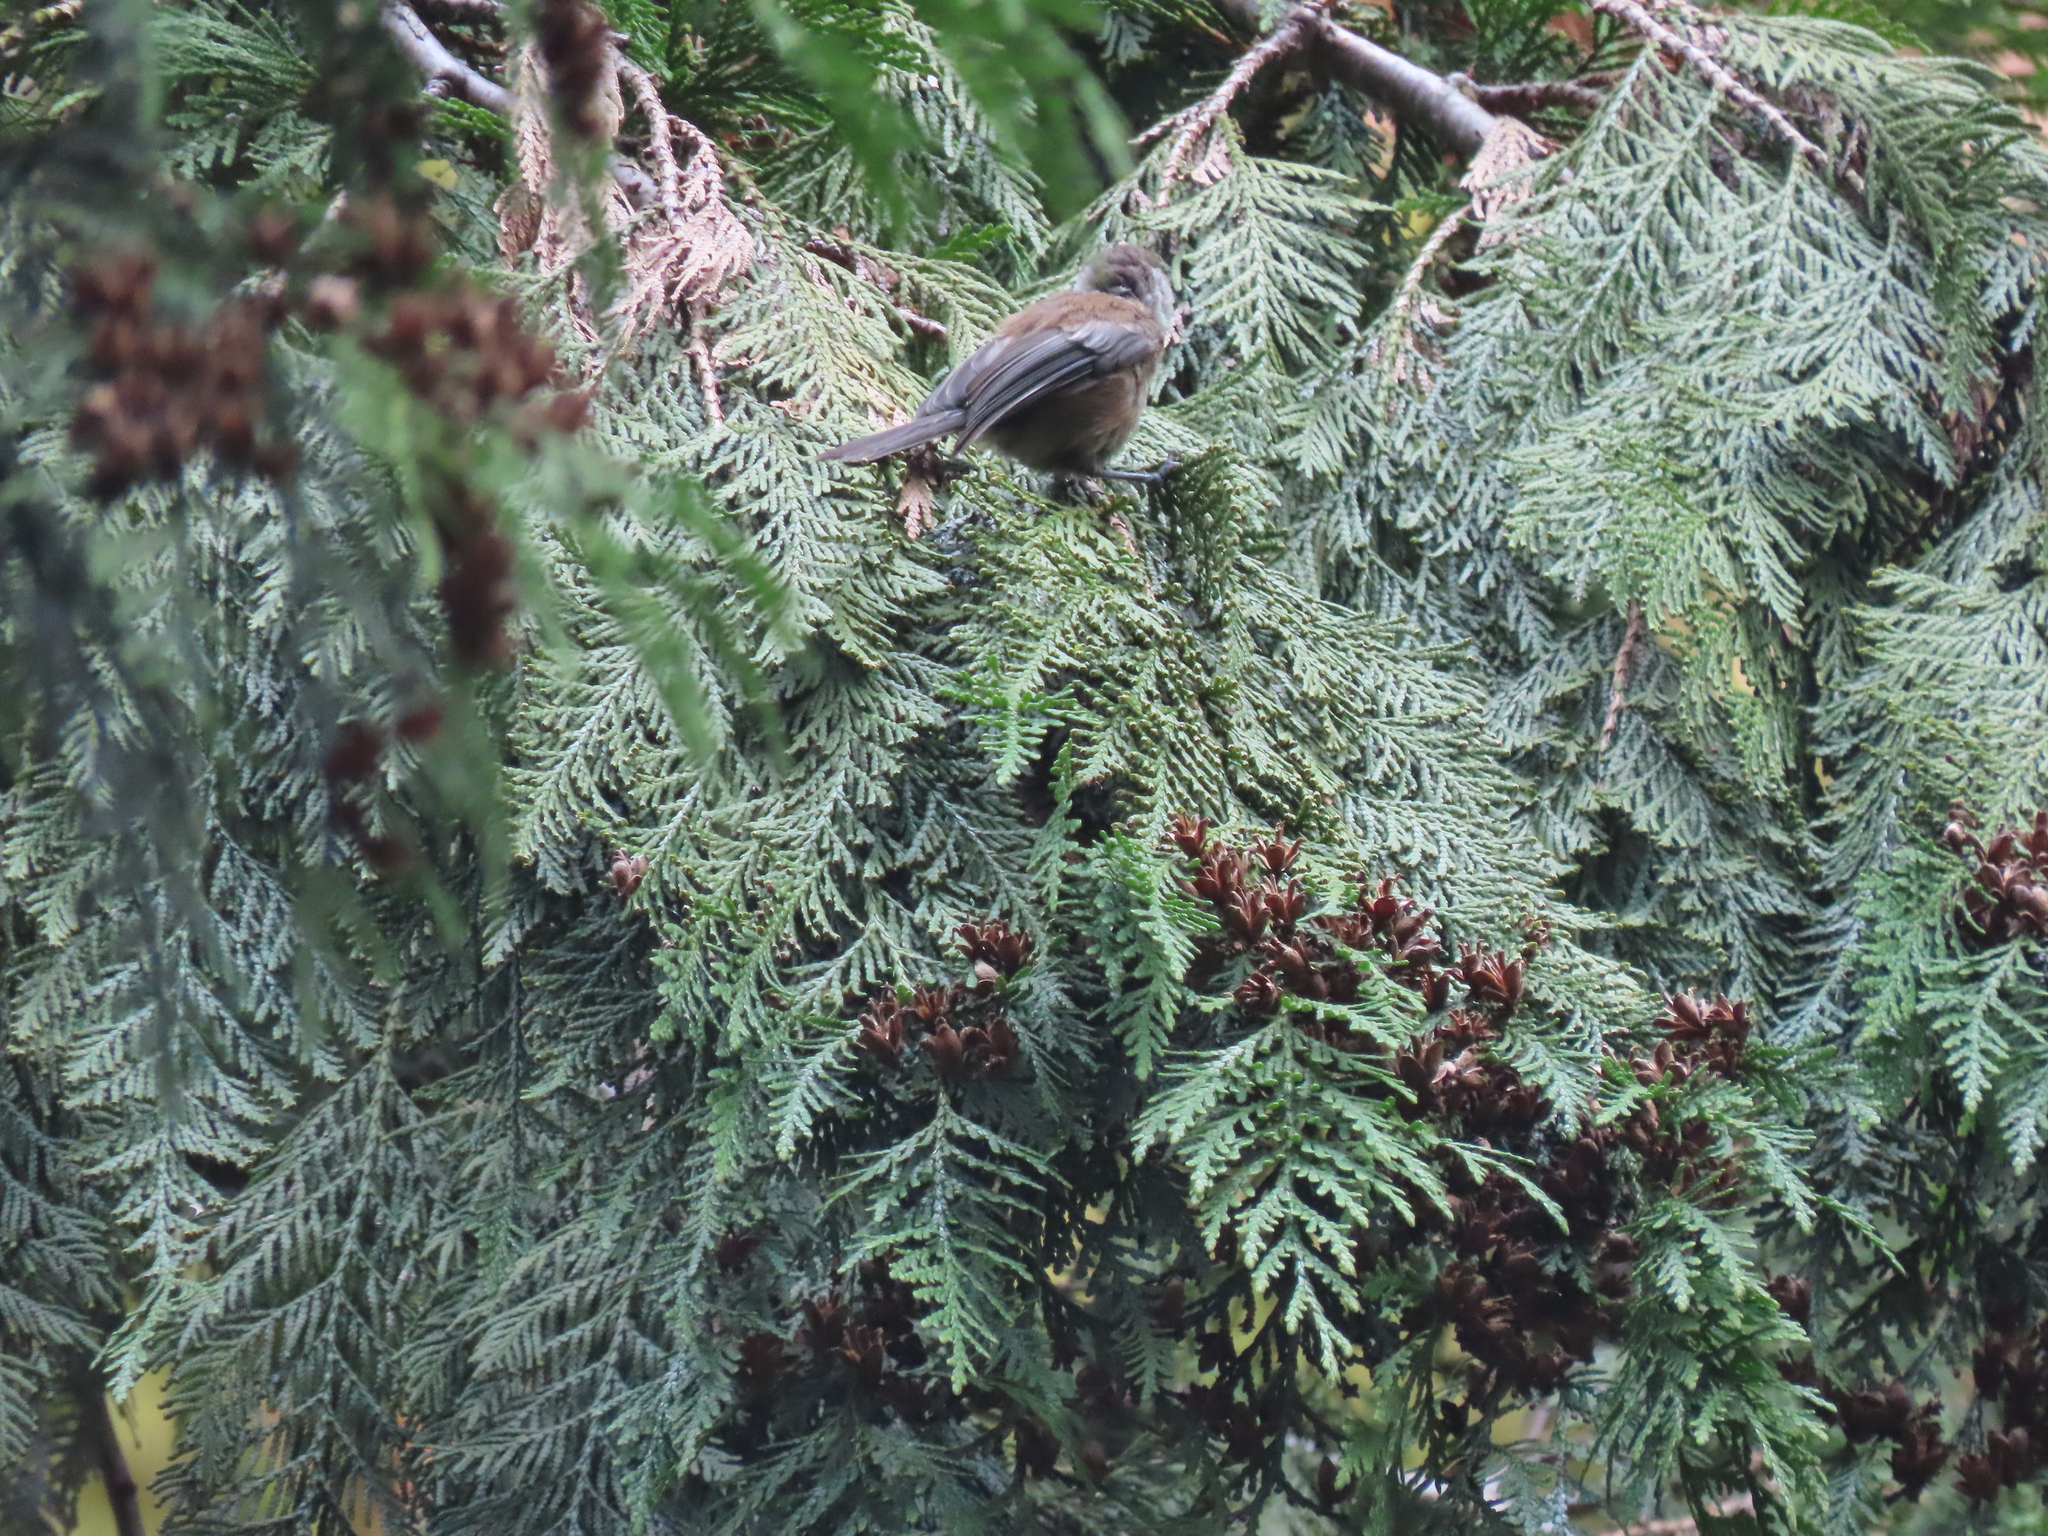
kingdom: Animalia
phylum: Chordata
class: Aves
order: Passeriformes
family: Paridae
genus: Poecile
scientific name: Poecile rufescens
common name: Chestnut-backed chickadee
